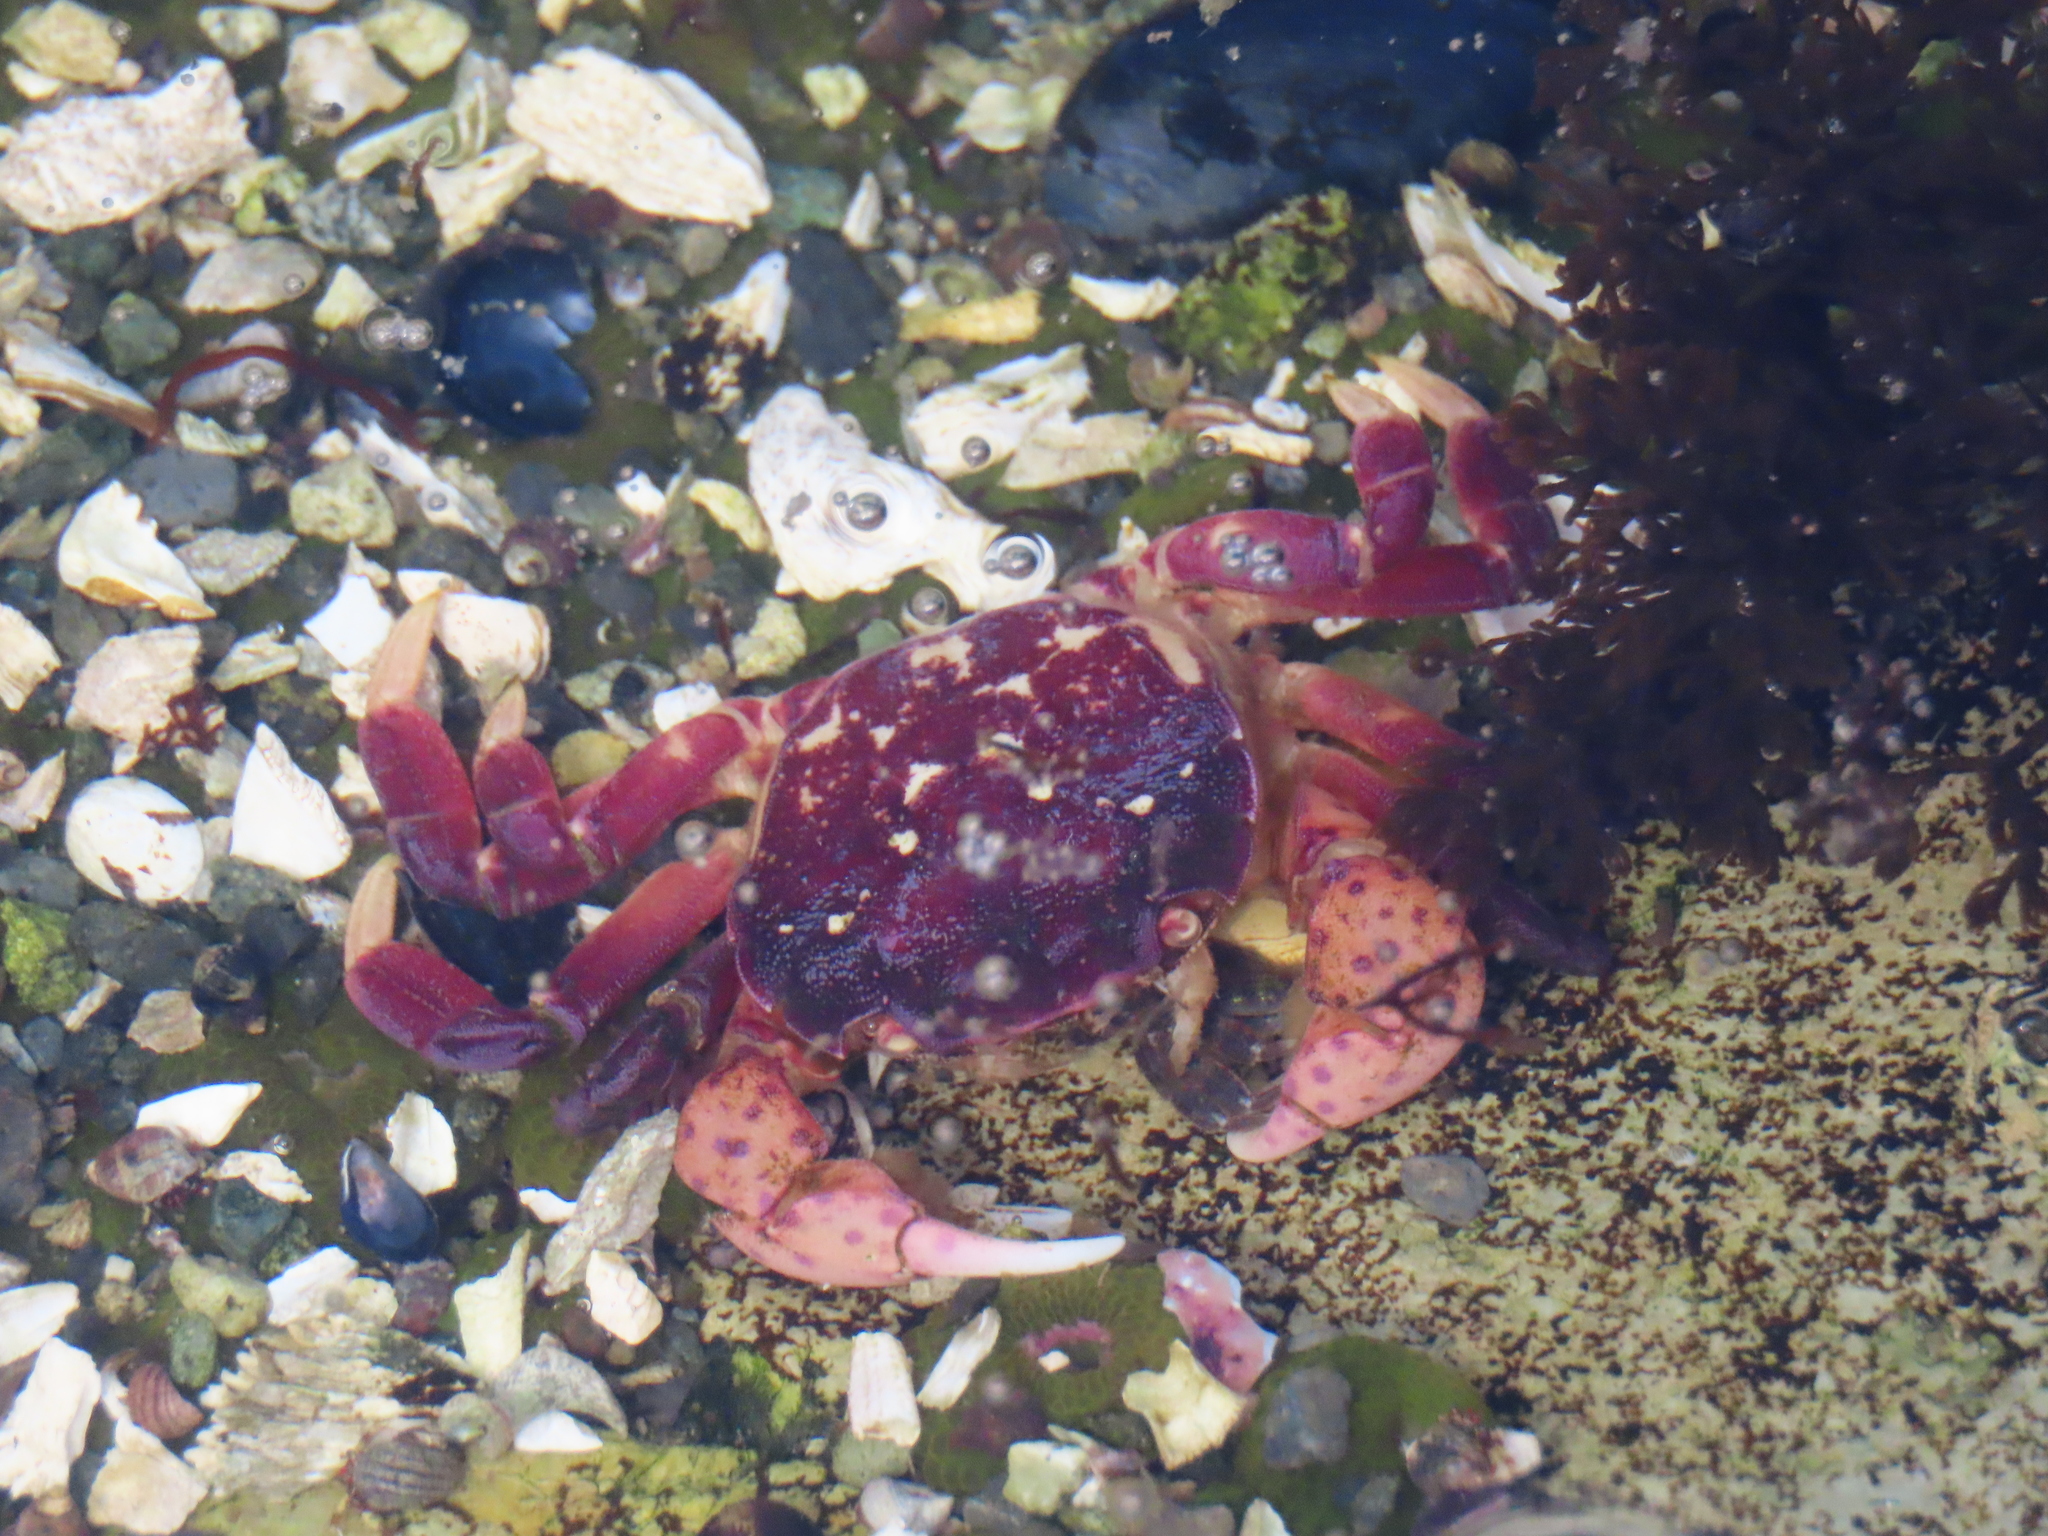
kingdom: Animalia
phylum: Arthropoda
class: Malacostraca
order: Decapoda
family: Varunidae
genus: Hemigrapsus
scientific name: Hemigrapsus nudus
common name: Purple shore crab
